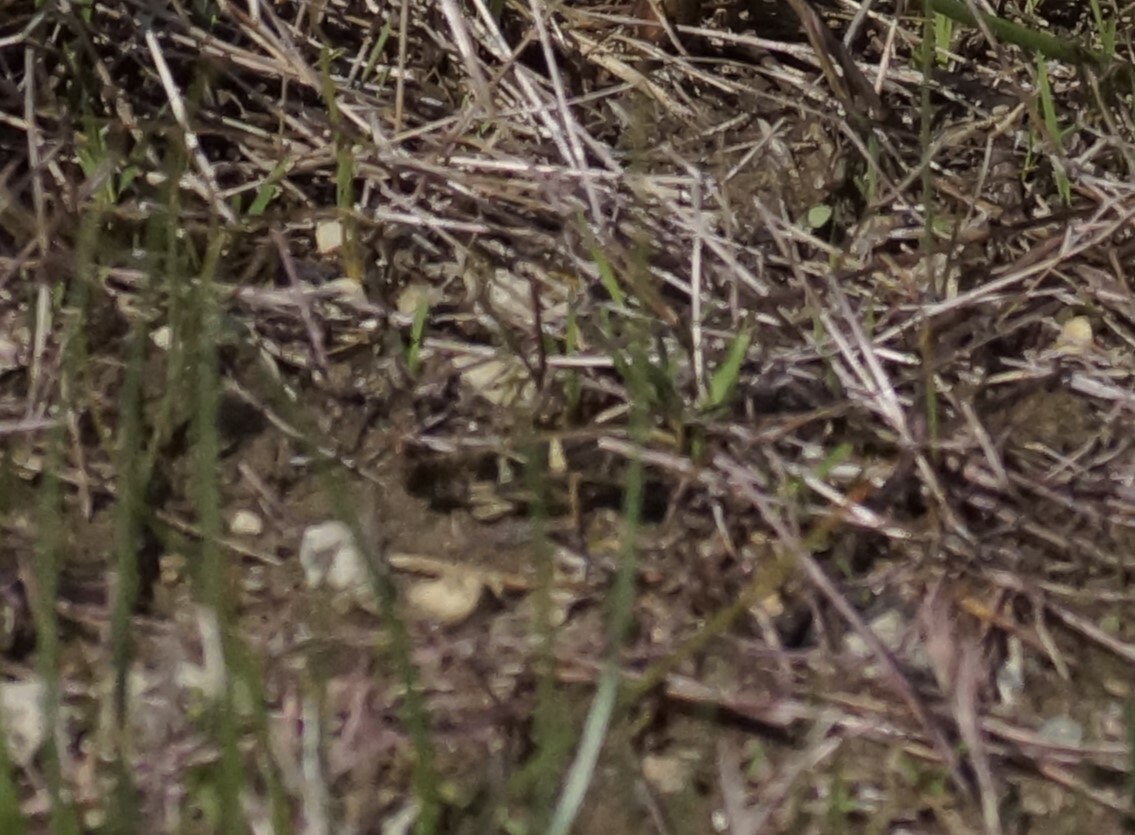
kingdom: Animalia
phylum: Arthropoda
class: Insecta
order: Orthoptera
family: Acrididae
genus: Gastrimargus
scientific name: Gastrimargus musicus
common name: Yellow-winged locust
